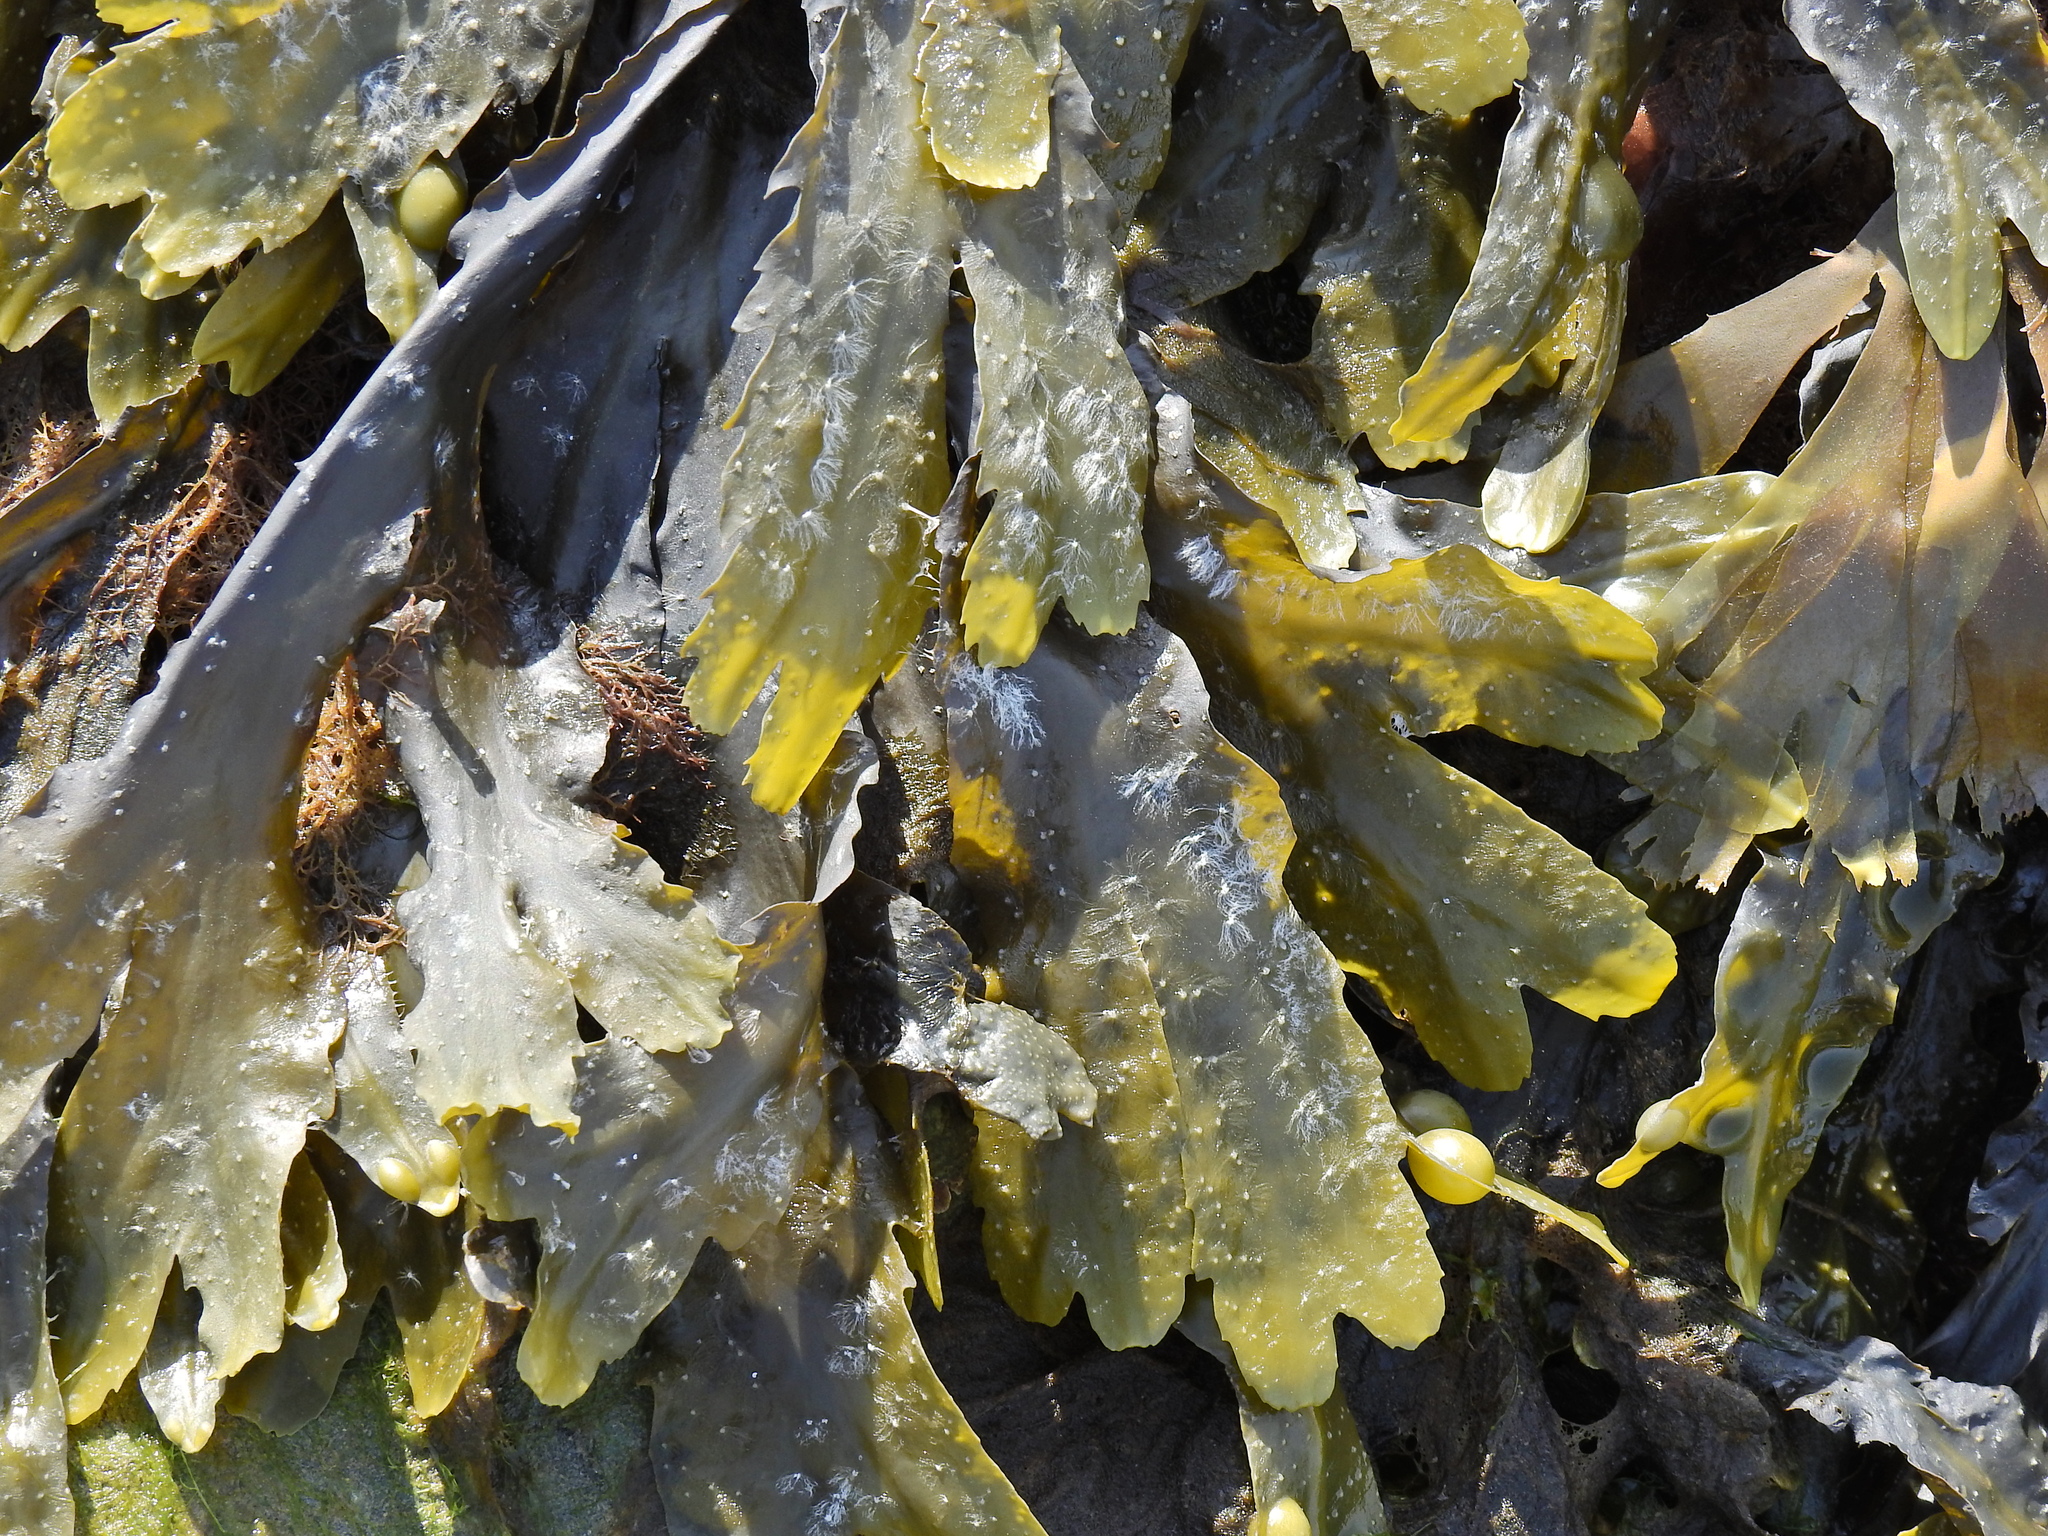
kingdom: Chromista
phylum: Ochrophyta
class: Phaeophyceae
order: Fucales
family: Fucaceae
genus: Fucus
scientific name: Fucus serratus
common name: Toothed wrack
